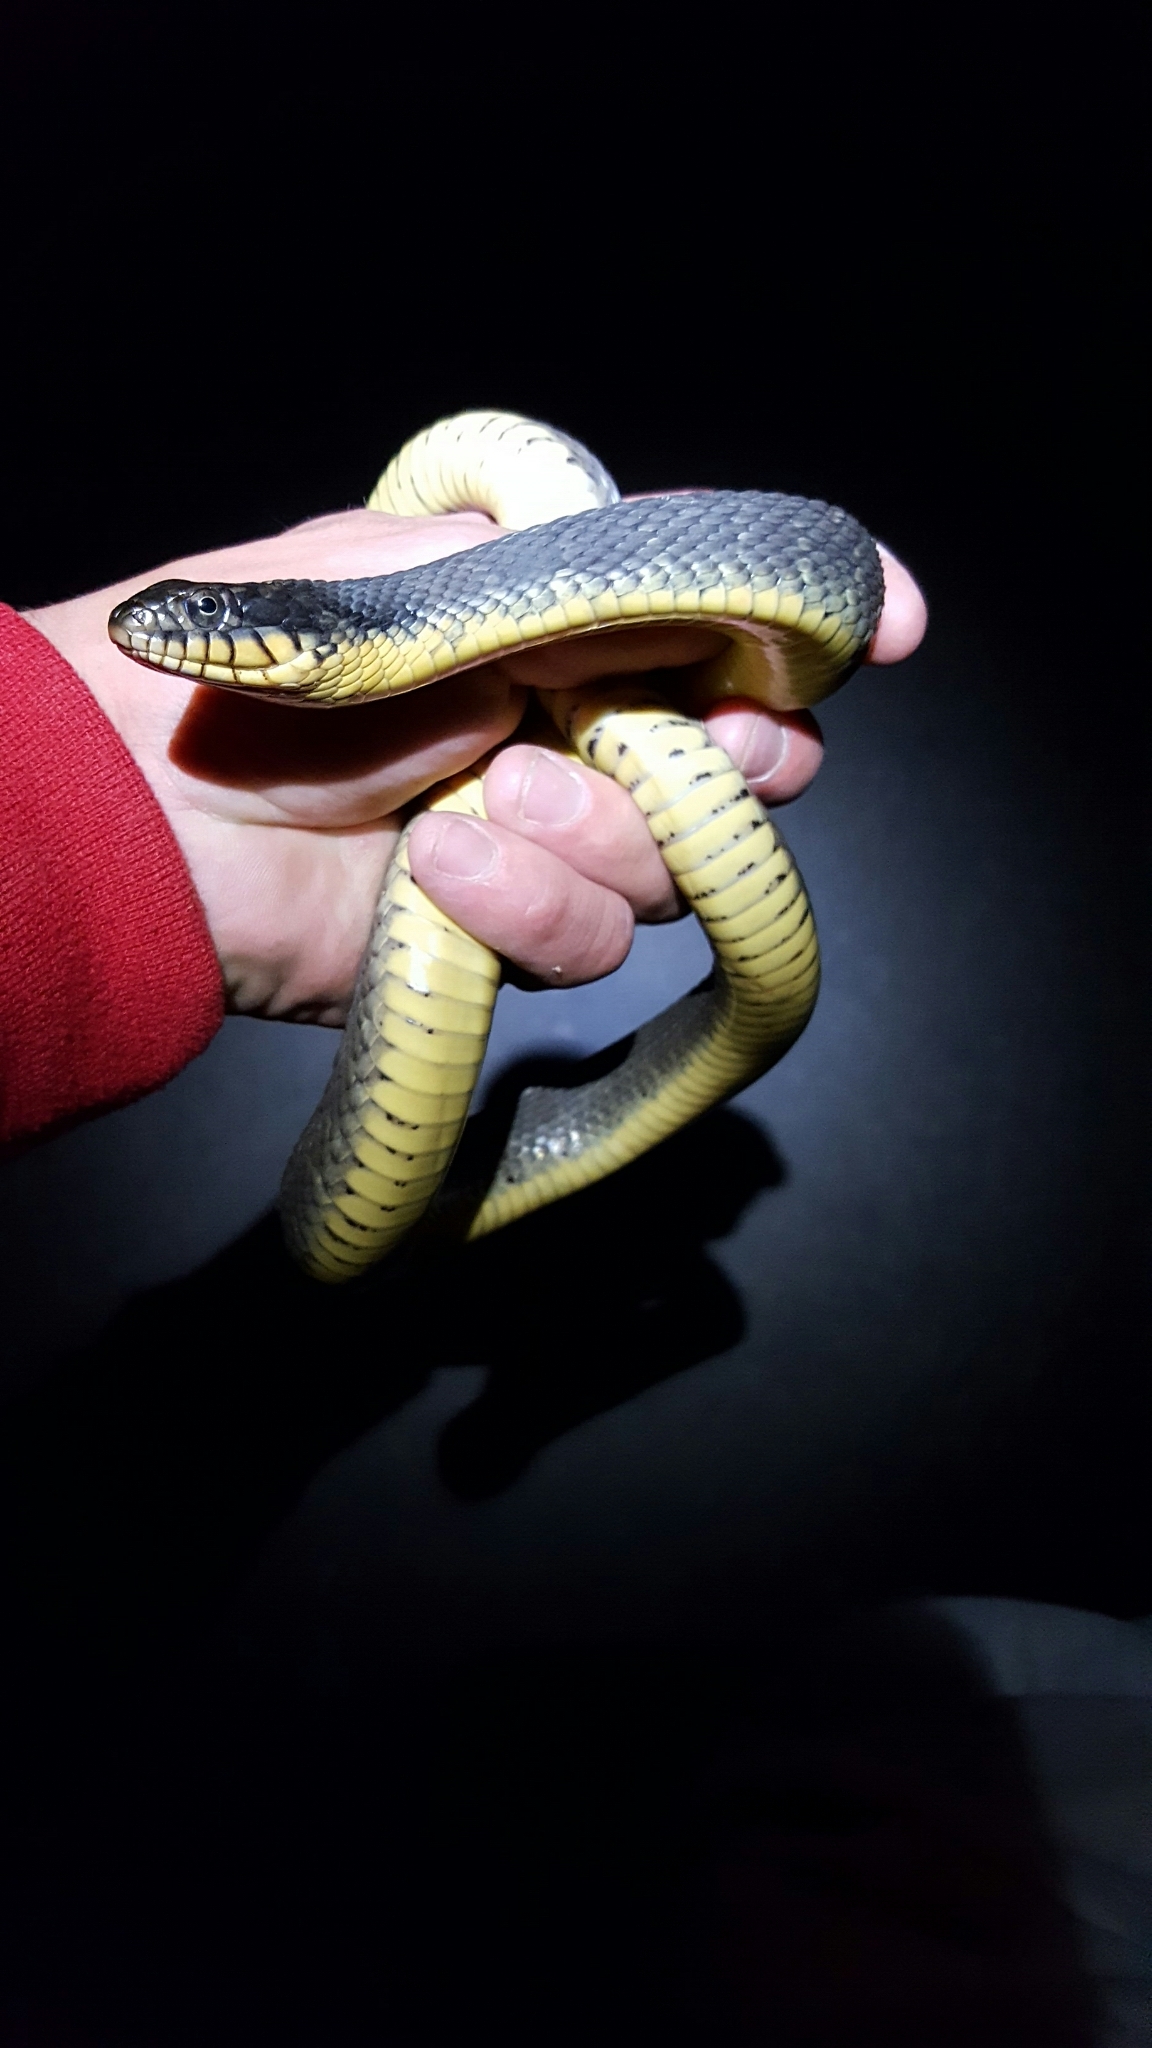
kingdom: Animalia
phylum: Chordata
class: Squamata
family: Colubridae
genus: Nerodia
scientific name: Nerodia erythrogaster
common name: Plainbelly water snake
